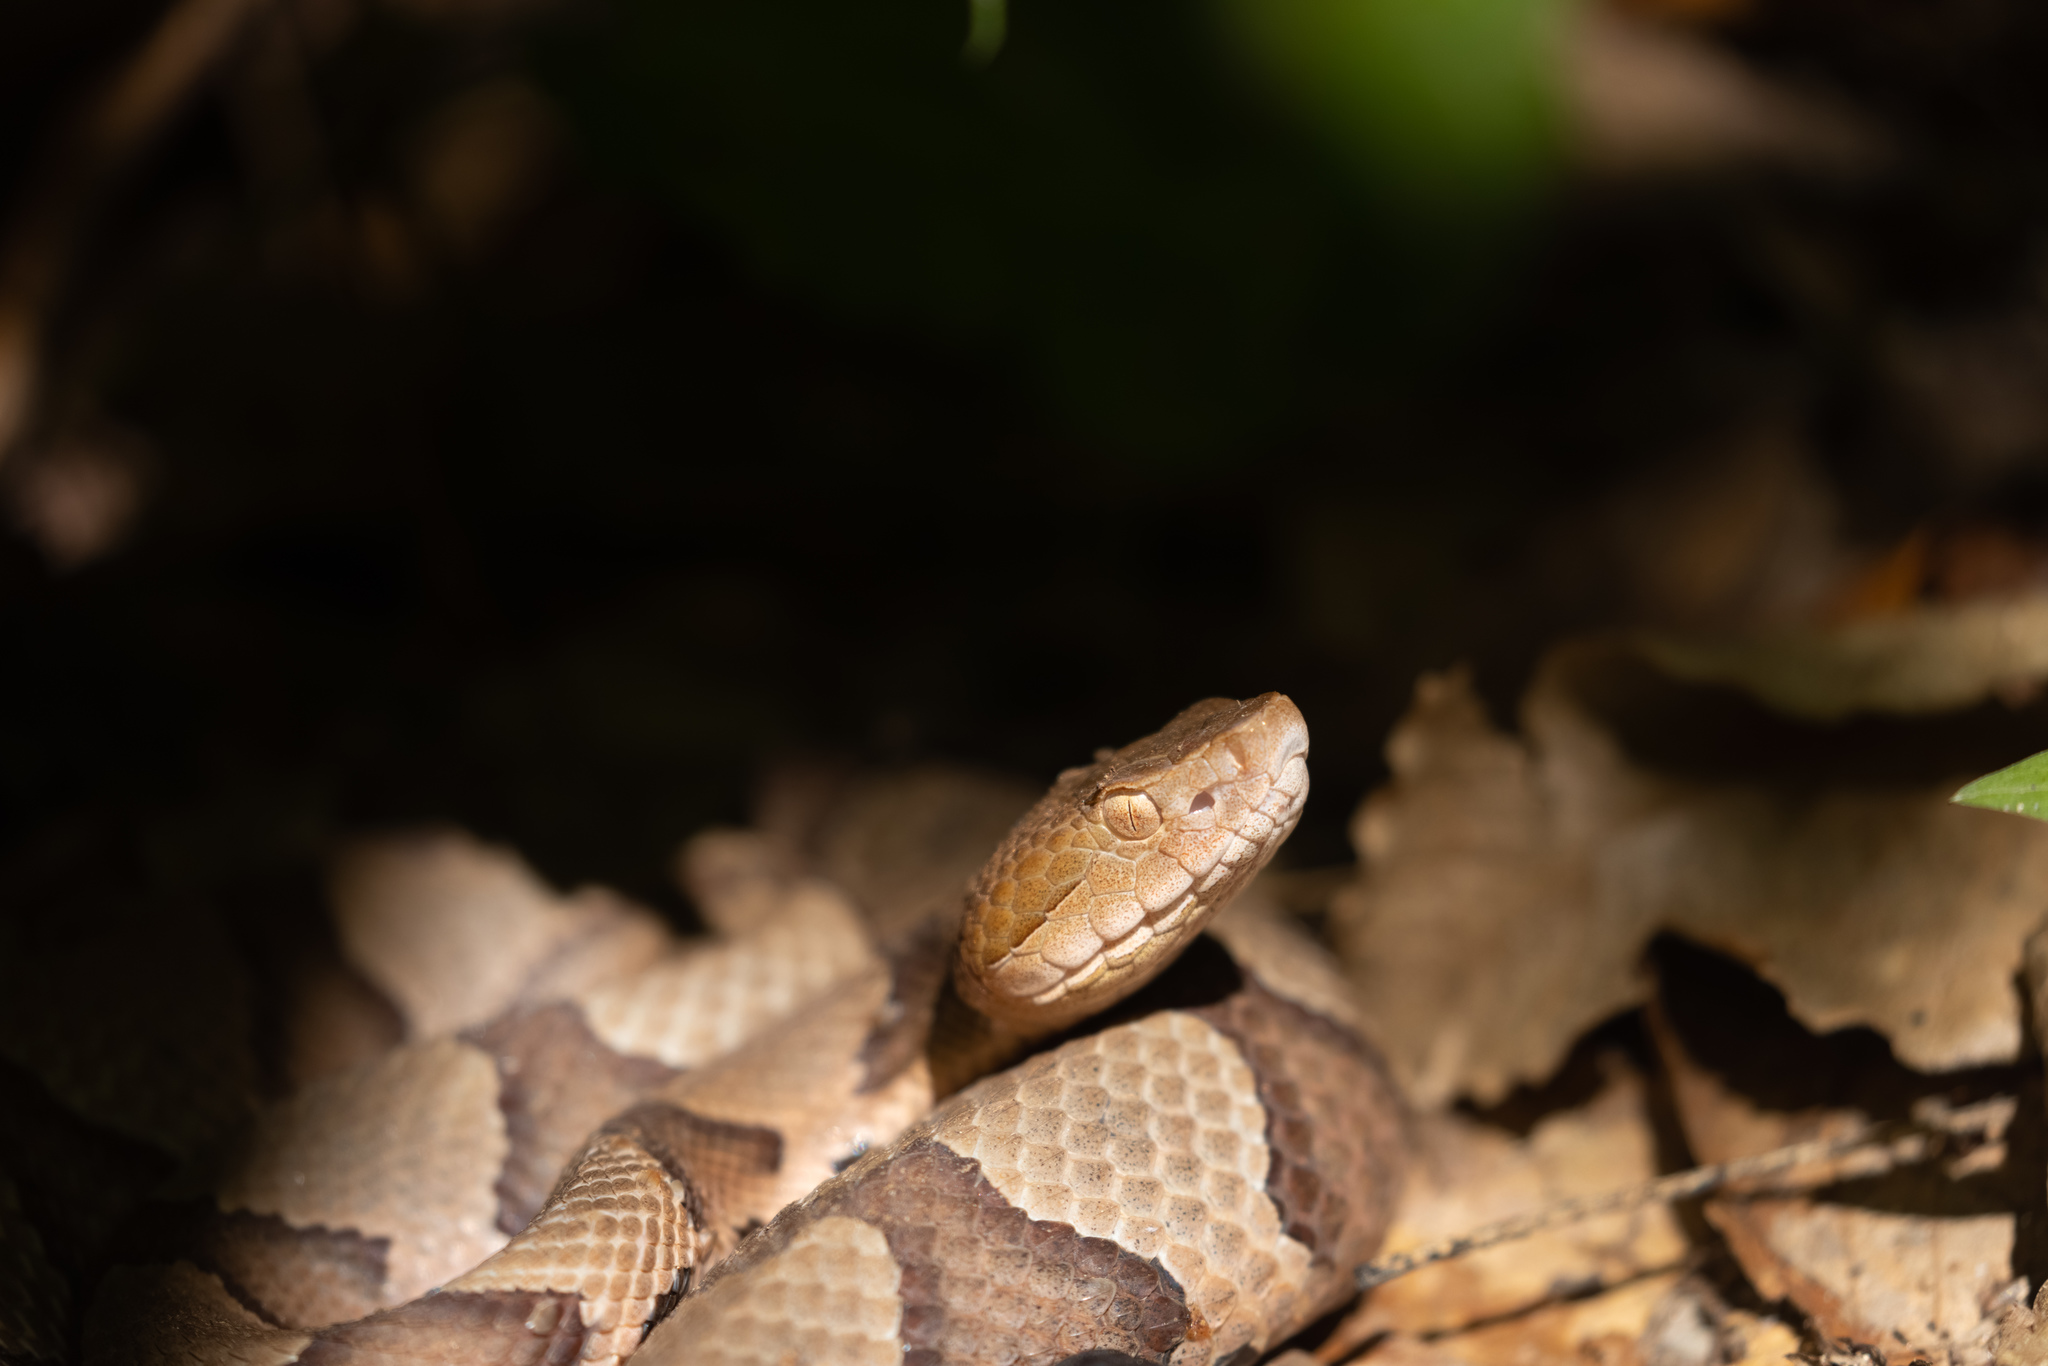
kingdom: Animalia
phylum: Chordata
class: Squamata
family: Viperidae
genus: Agkistrodon
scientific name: Agkistrodon contortrix
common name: Northern copperhead
